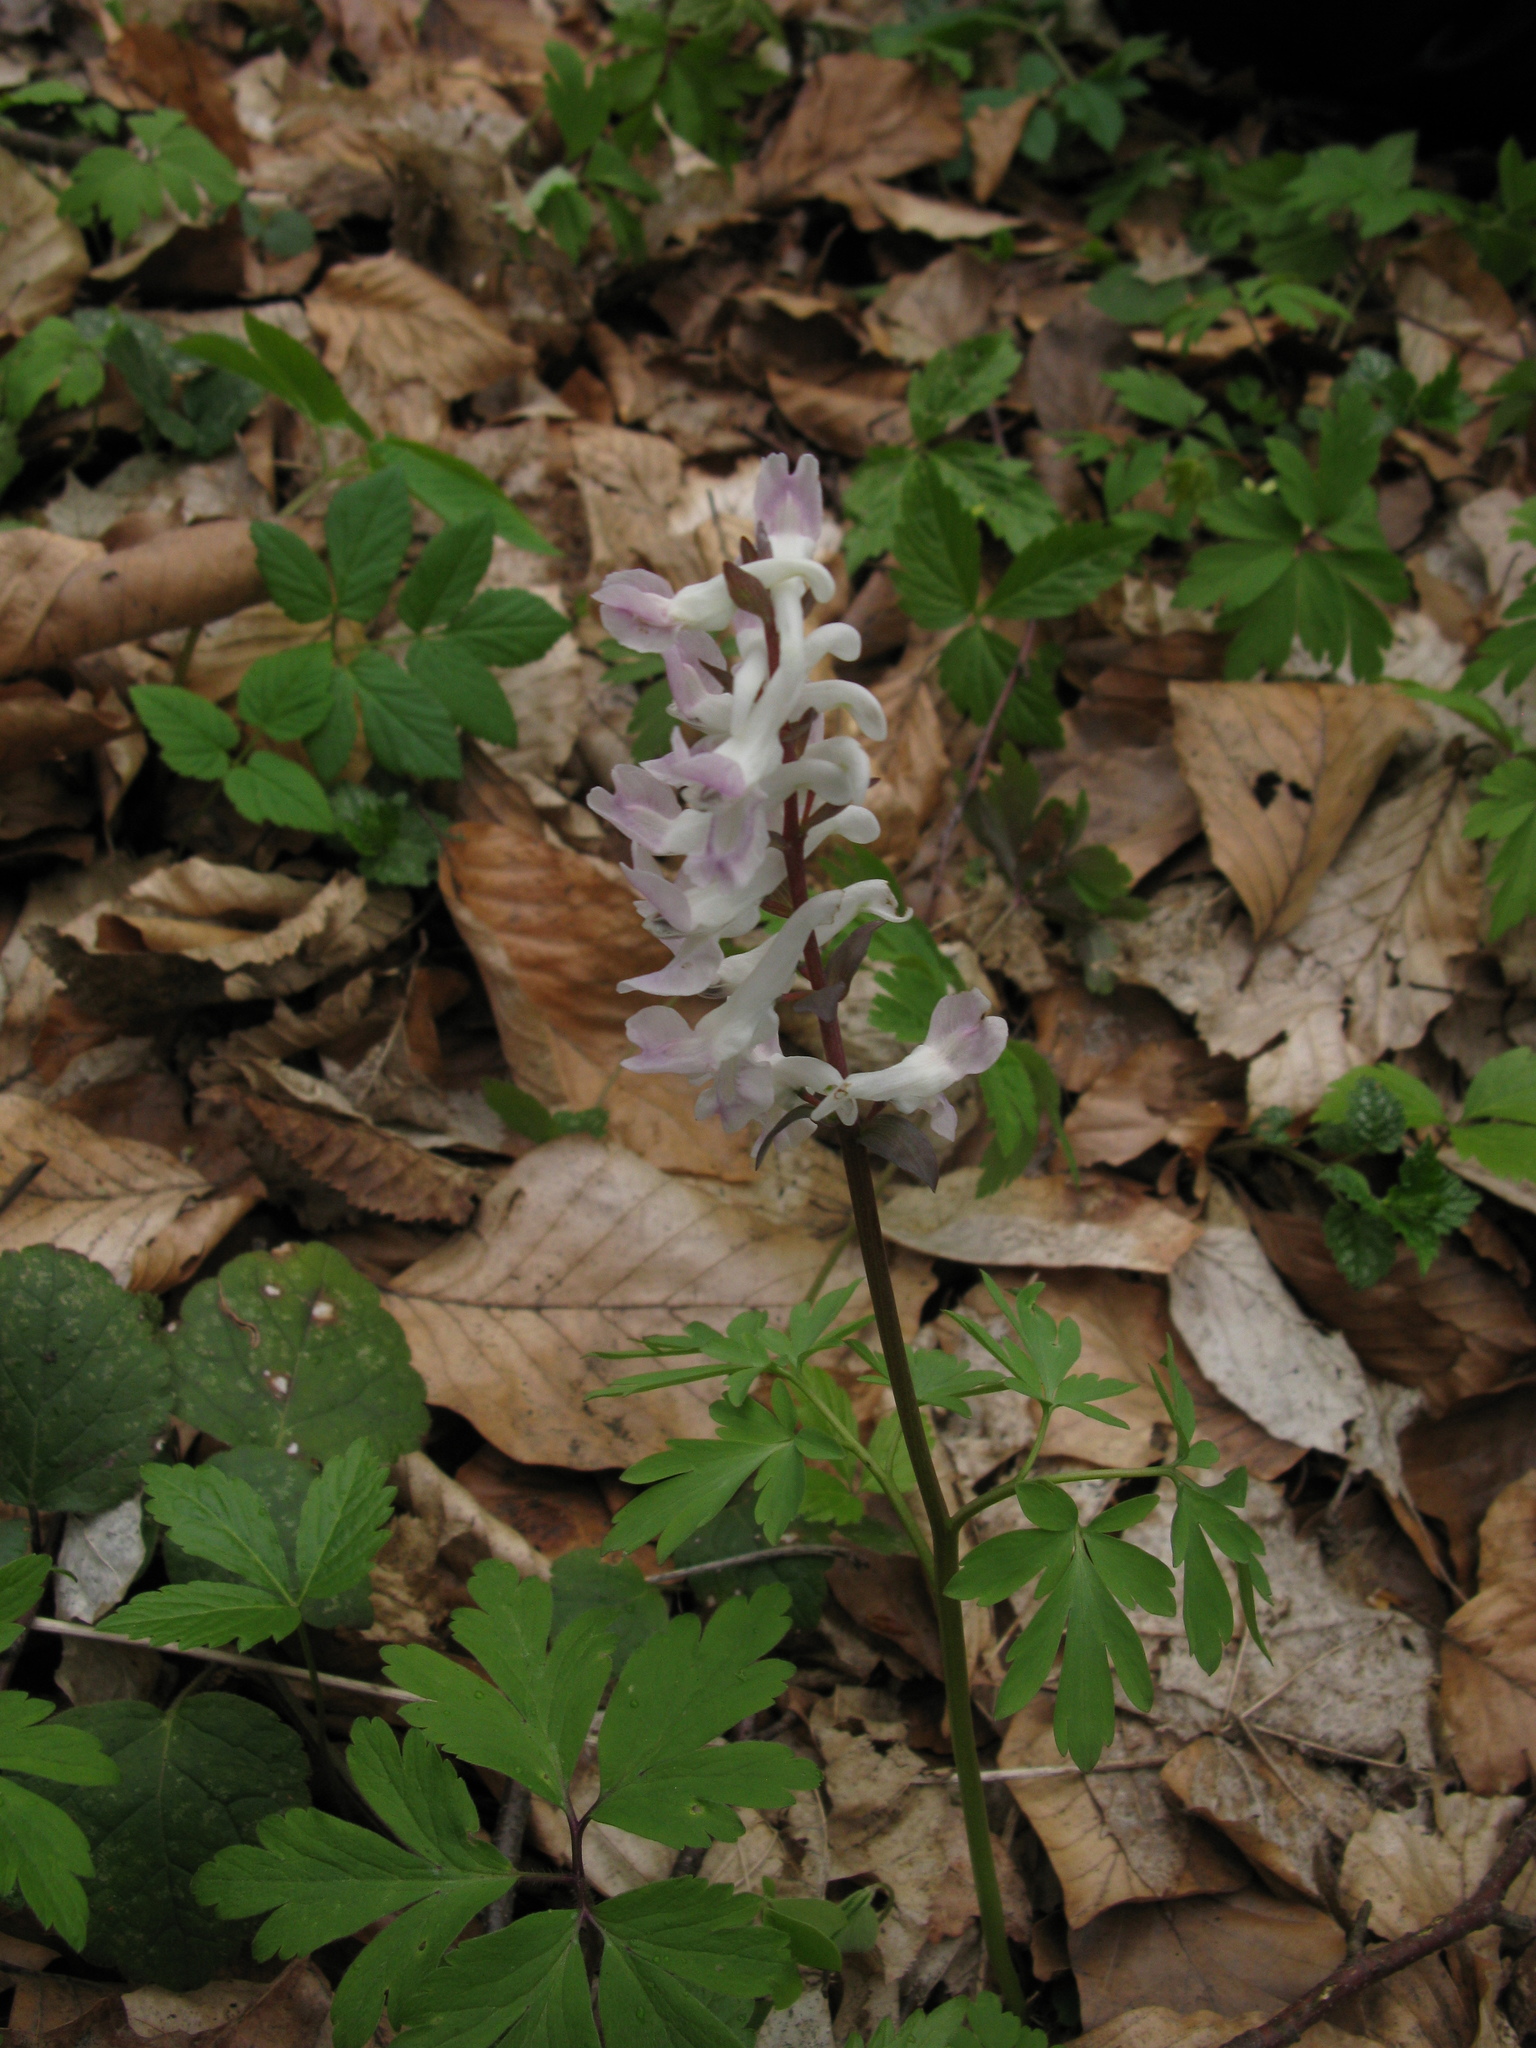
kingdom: Plantae
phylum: Tracheophyta
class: Magnoliopsida
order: Ranunculales
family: Papaveraceae
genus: Corydalis
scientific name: Corydalis cava
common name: Hollowroot
